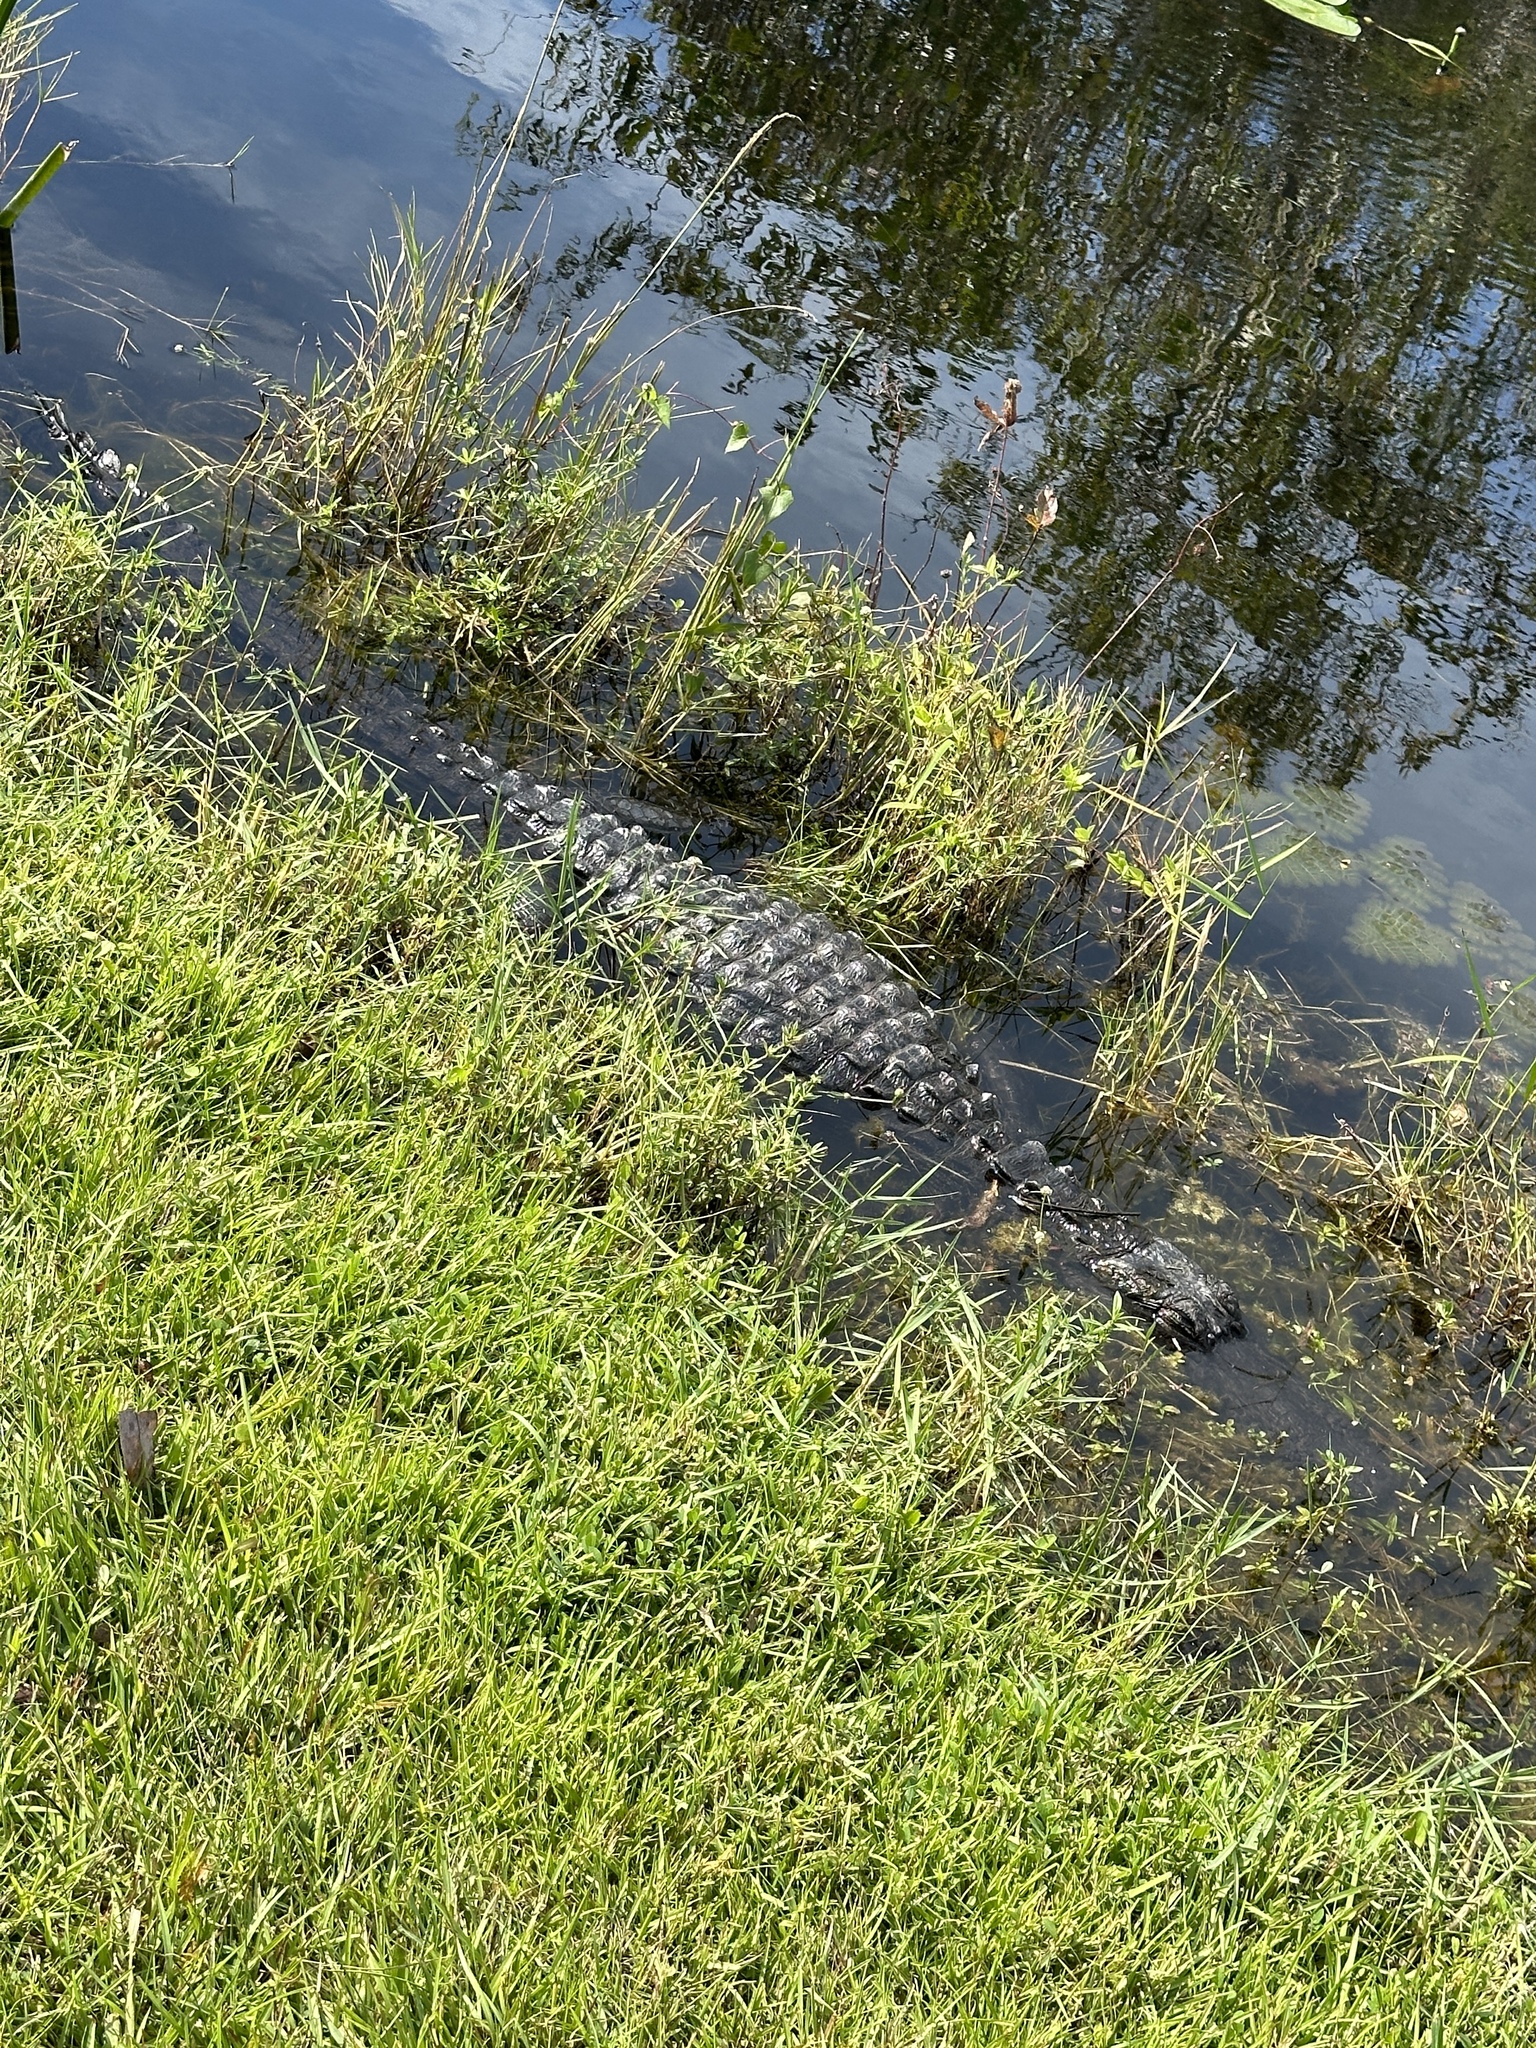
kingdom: Animalia
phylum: Chordata
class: Crocodylia
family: Alligatoridae
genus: Alligator
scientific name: Alligator mississippiensis
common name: American alligator
